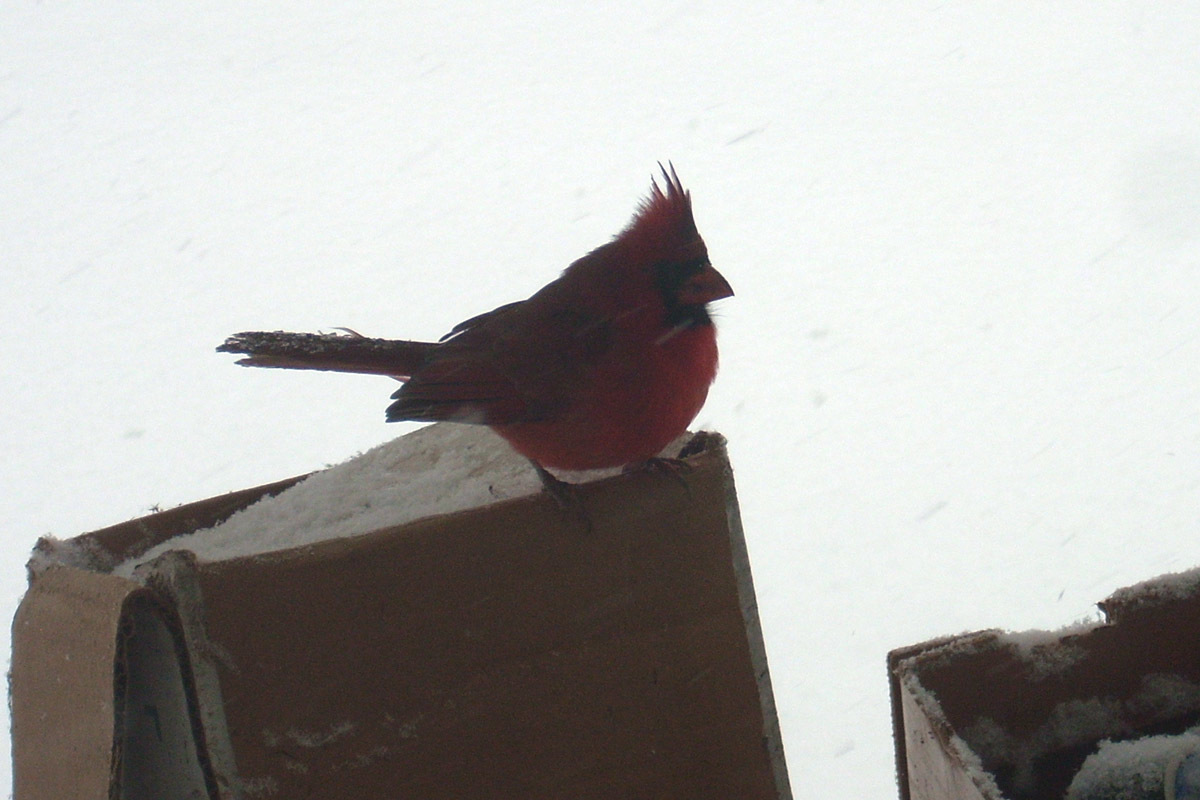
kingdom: Animalia
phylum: Chordata
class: Aves
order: Passeriformes
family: Cardinalidae
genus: Cardinalis
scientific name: Cardinalis cardinalis
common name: Northern cardinal
